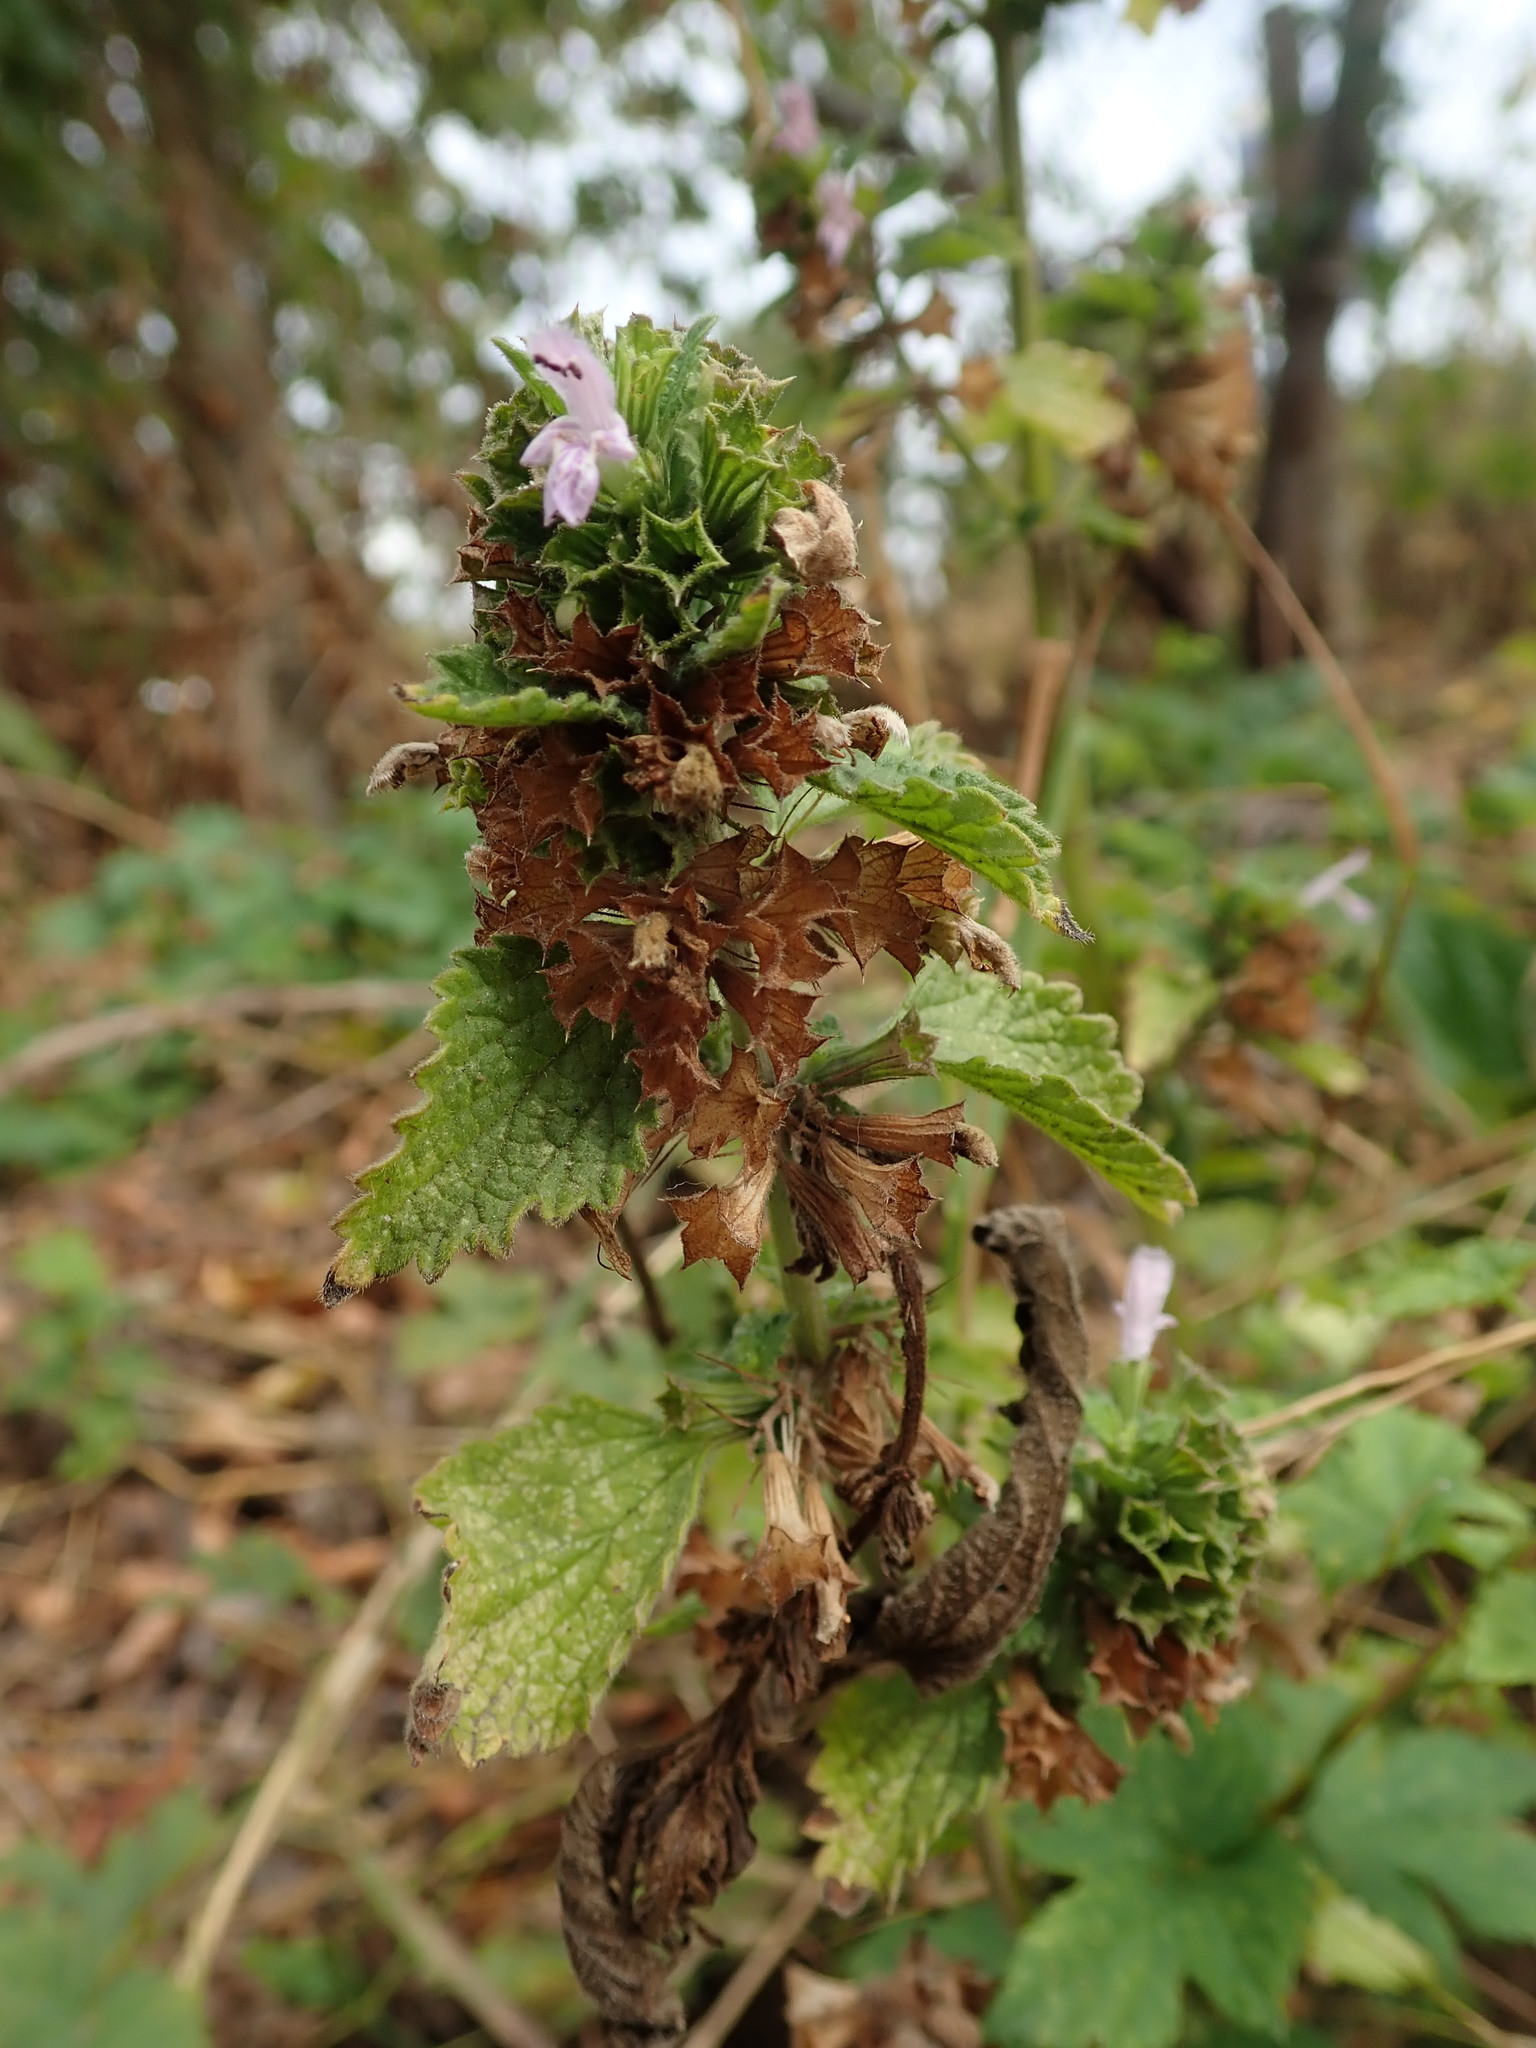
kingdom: Plantae
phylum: Tracheophyta
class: Magnoliopsida
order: Lamiales
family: Lamiaceae
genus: Ballota
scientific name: Ballota nigra
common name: Black horehound
